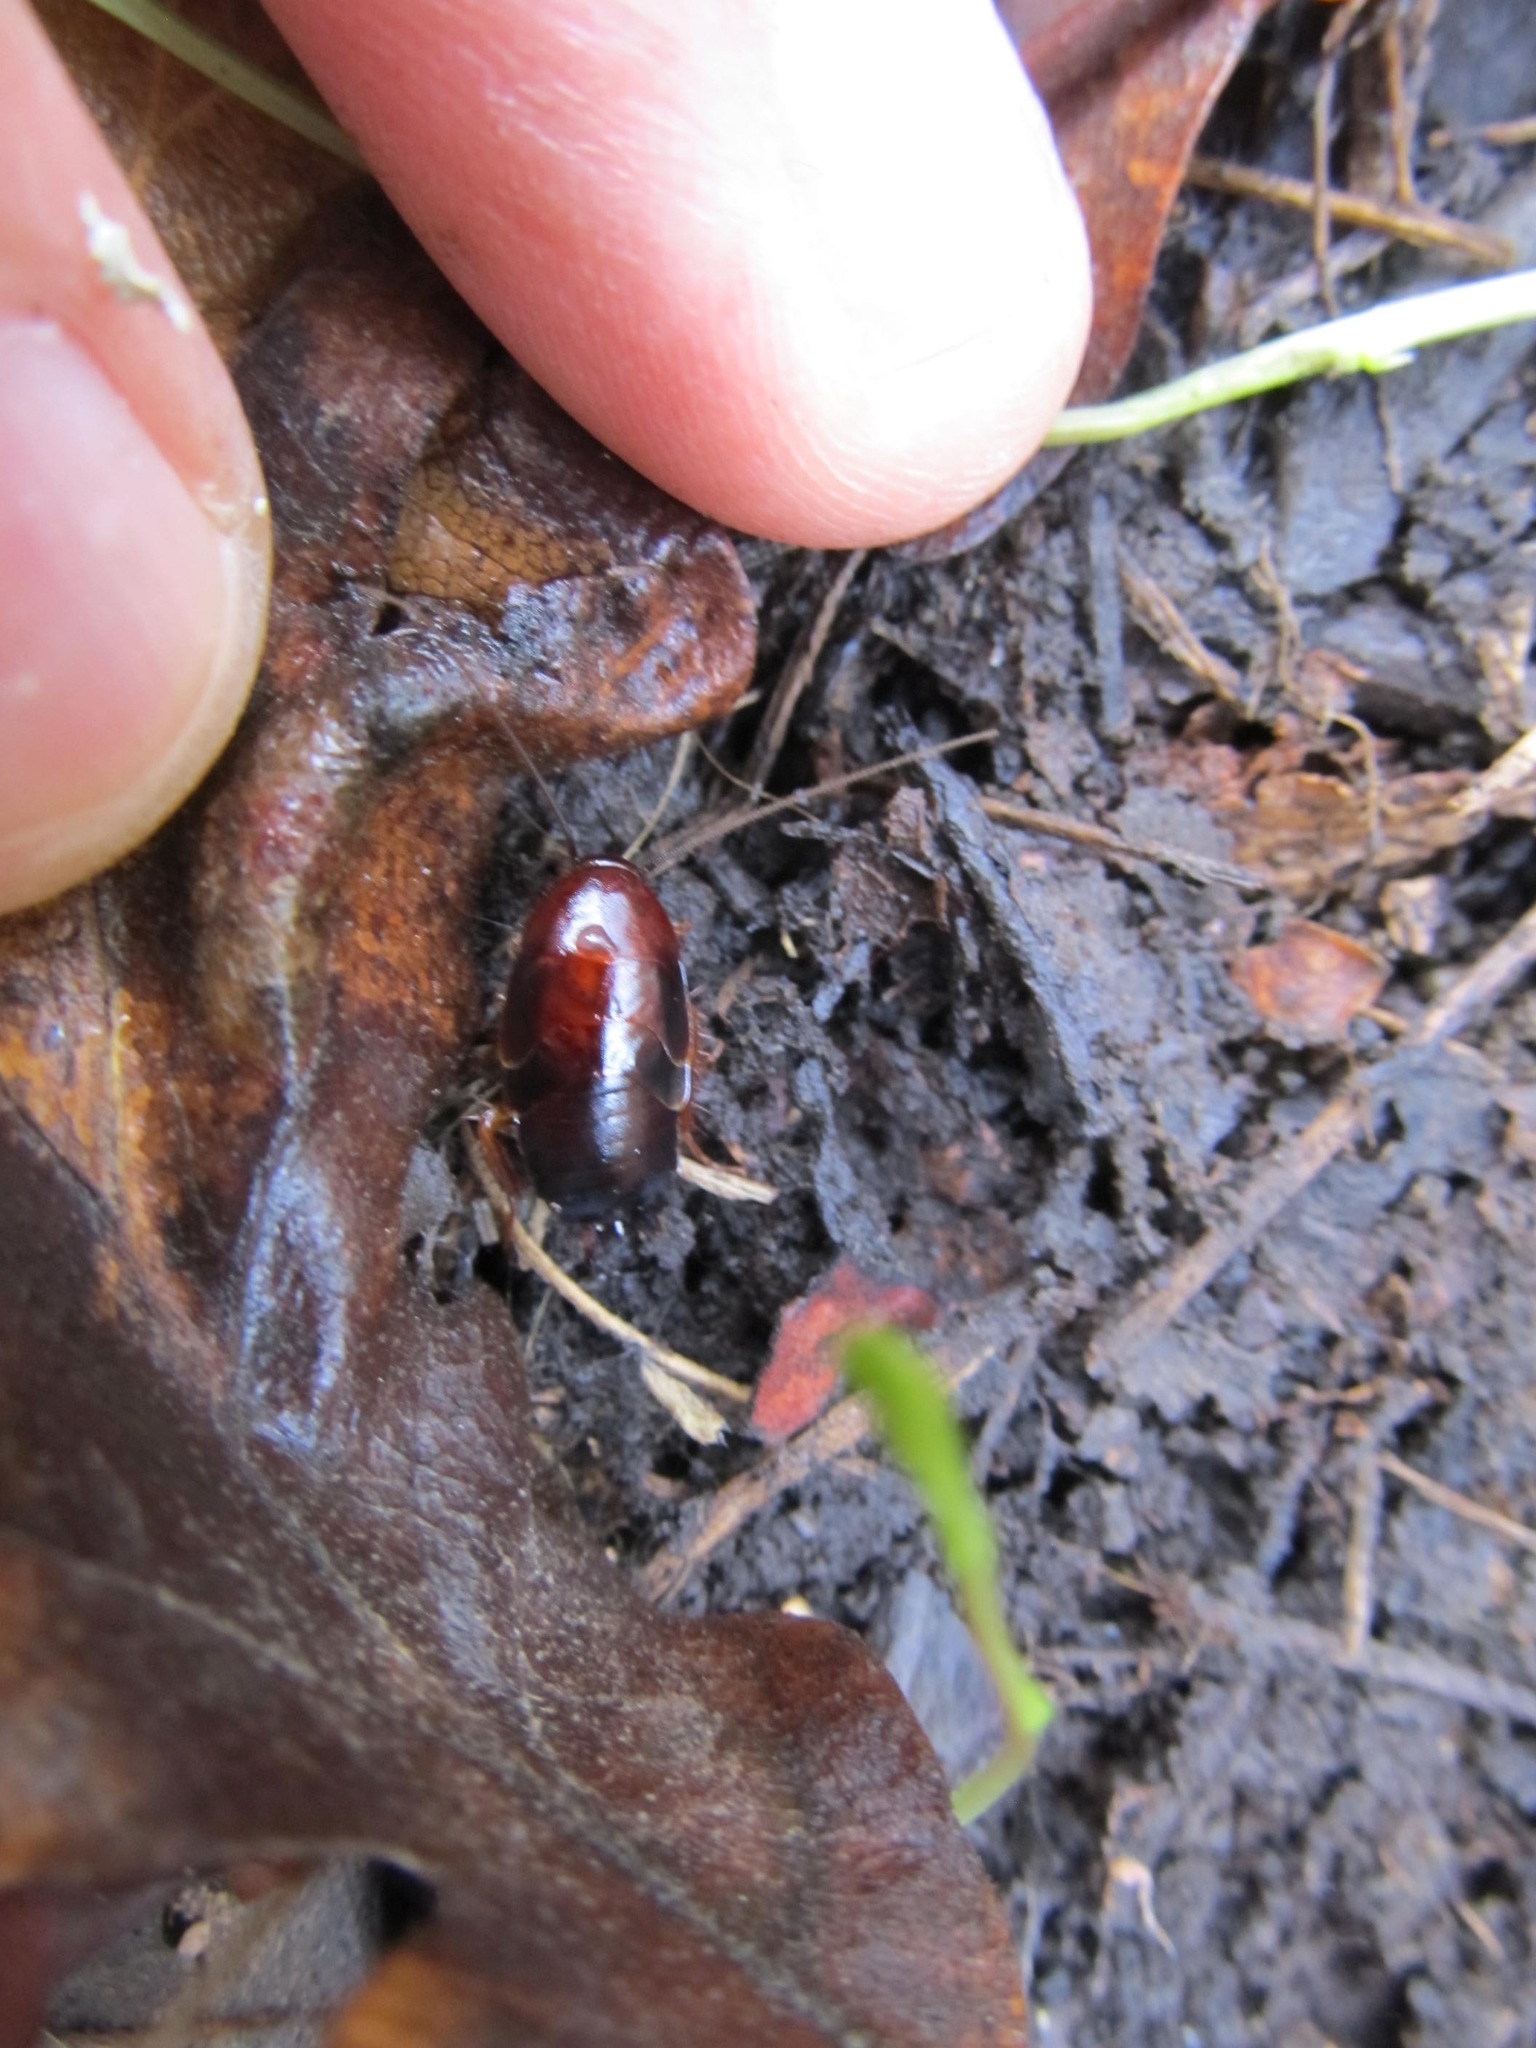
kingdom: Animalia
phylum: Arthropoda
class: Insecta
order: Blattodea
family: Ectobiidae
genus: Parcoblatta
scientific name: Parcoblatta americana
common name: Western wood cockroach
